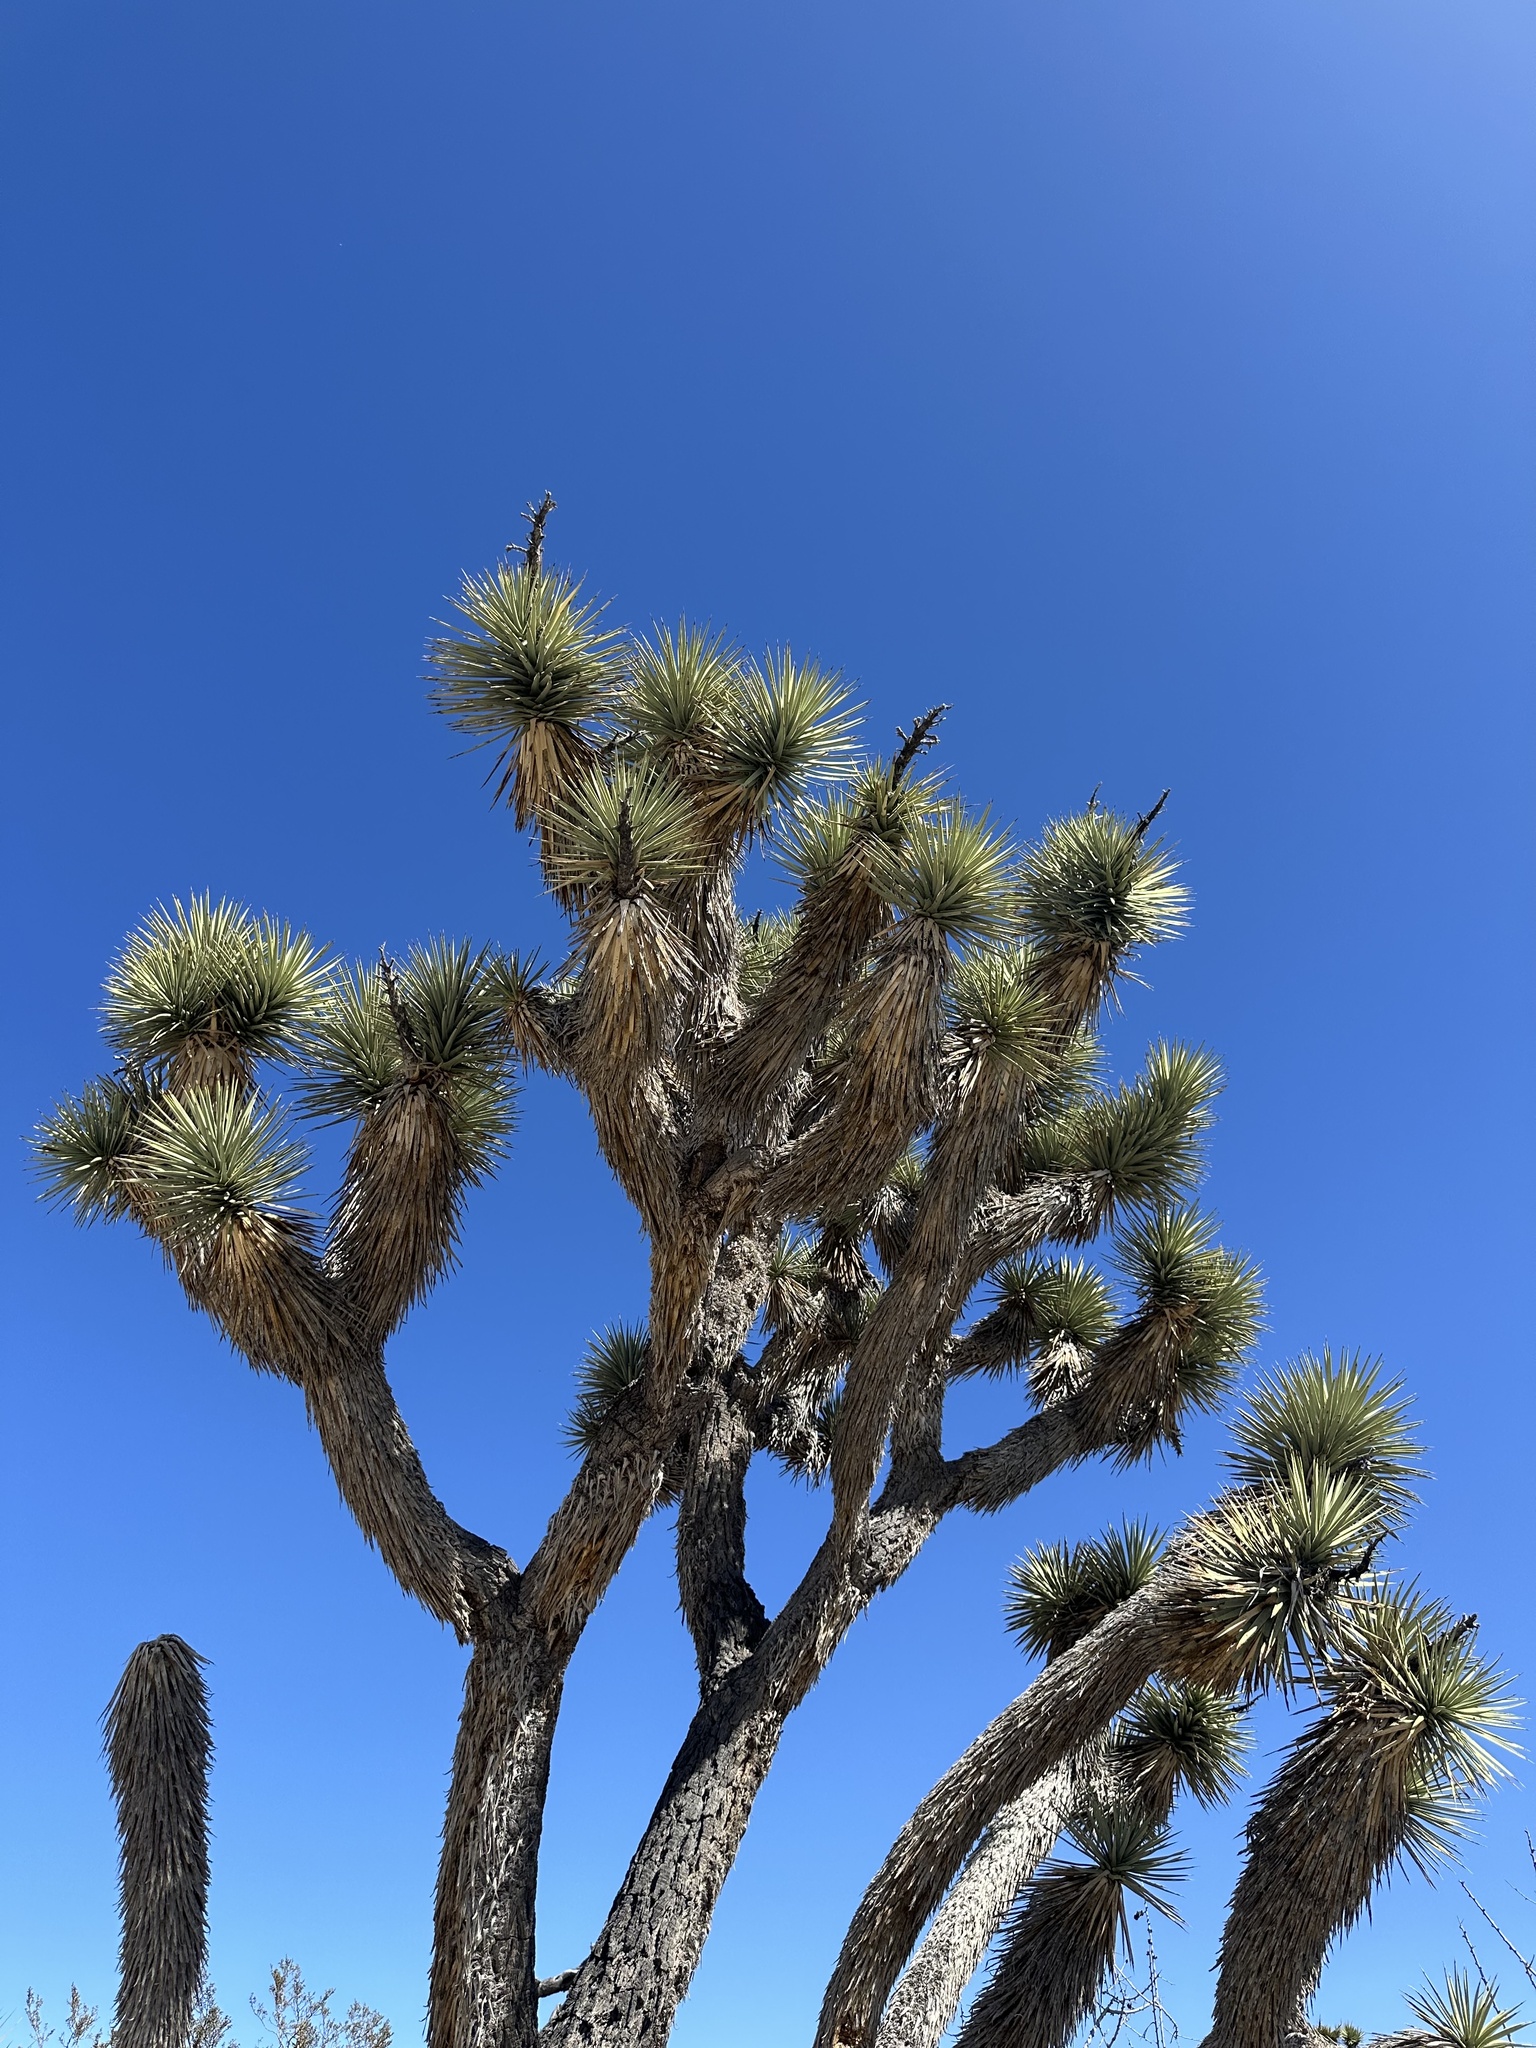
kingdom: Plantae
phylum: Tracheophyta
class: Liliopsida
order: Asparagales
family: Asparagaceae
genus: Yucca
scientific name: Yucca brevifolia
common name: Joshua tree
